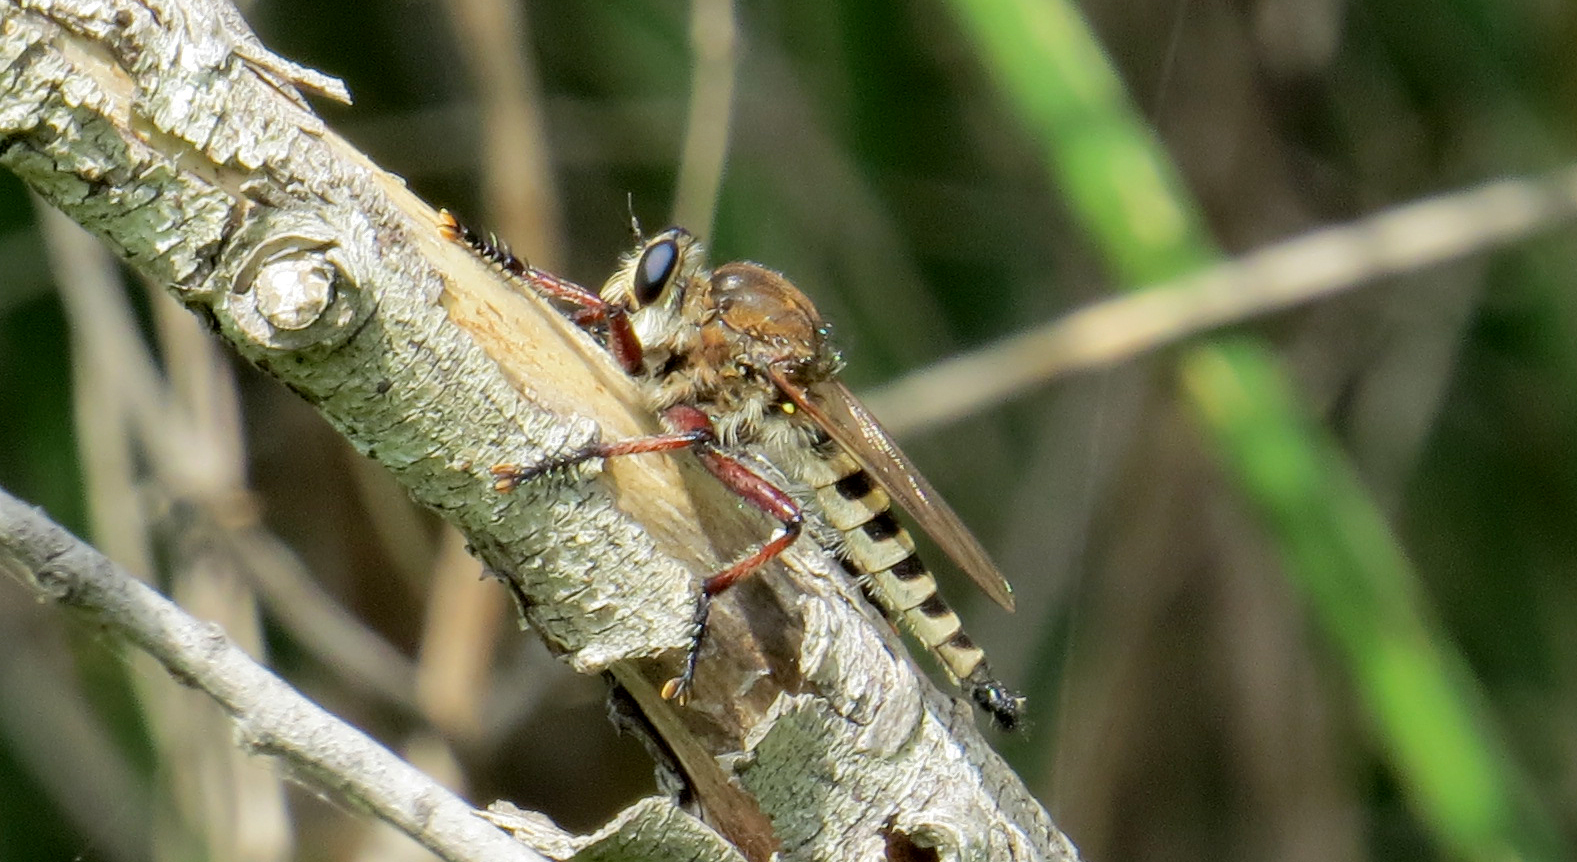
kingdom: Animalia
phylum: Arthropoda
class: Insecta
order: Diptera
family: Asilidae
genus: Promachus
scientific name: Promachus hinei
